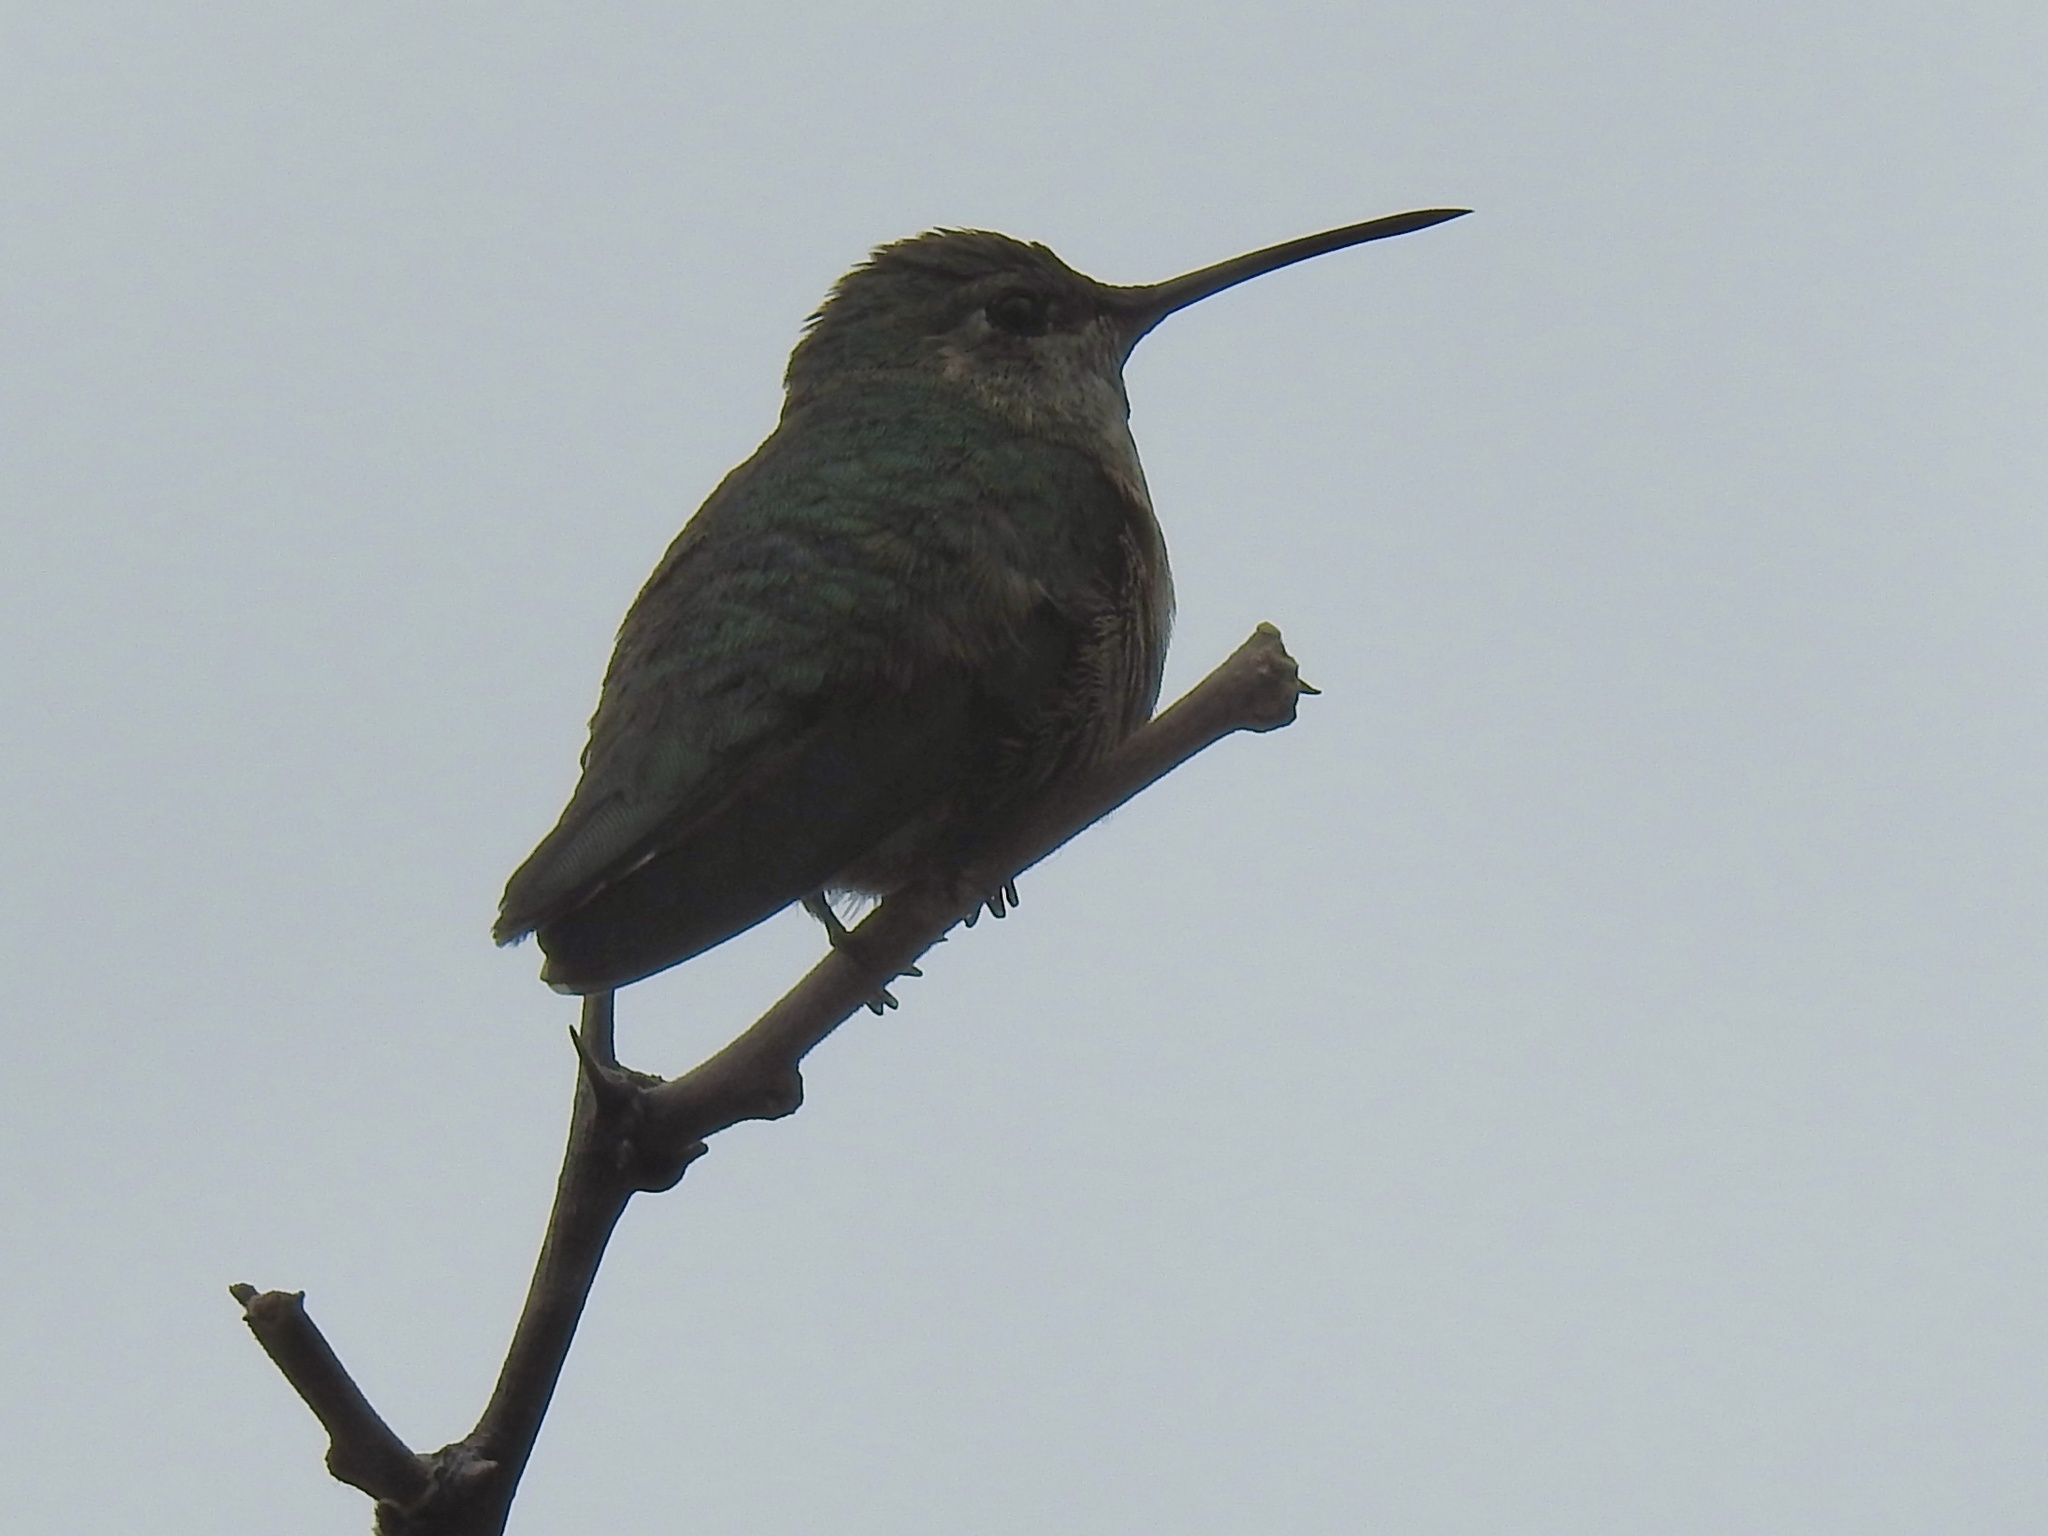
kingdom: Animalia
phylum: Chordata
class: Aves
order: Apodiformes
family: Trochilidae
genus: Selasphorus
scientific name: Selasphorus platycercus
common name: Broad-tailed hummingbird
